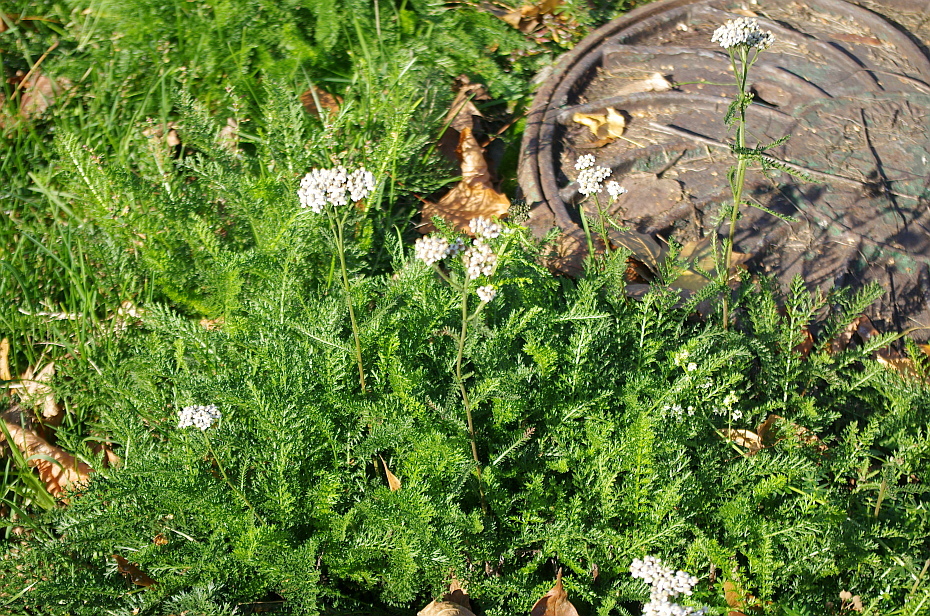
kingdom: Plantae
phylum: Tracheophyta
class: Magnoliopsida
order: Asterales
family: Asteraceae
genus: Achillea
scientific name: Achillea millefolium
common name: Yarrow
